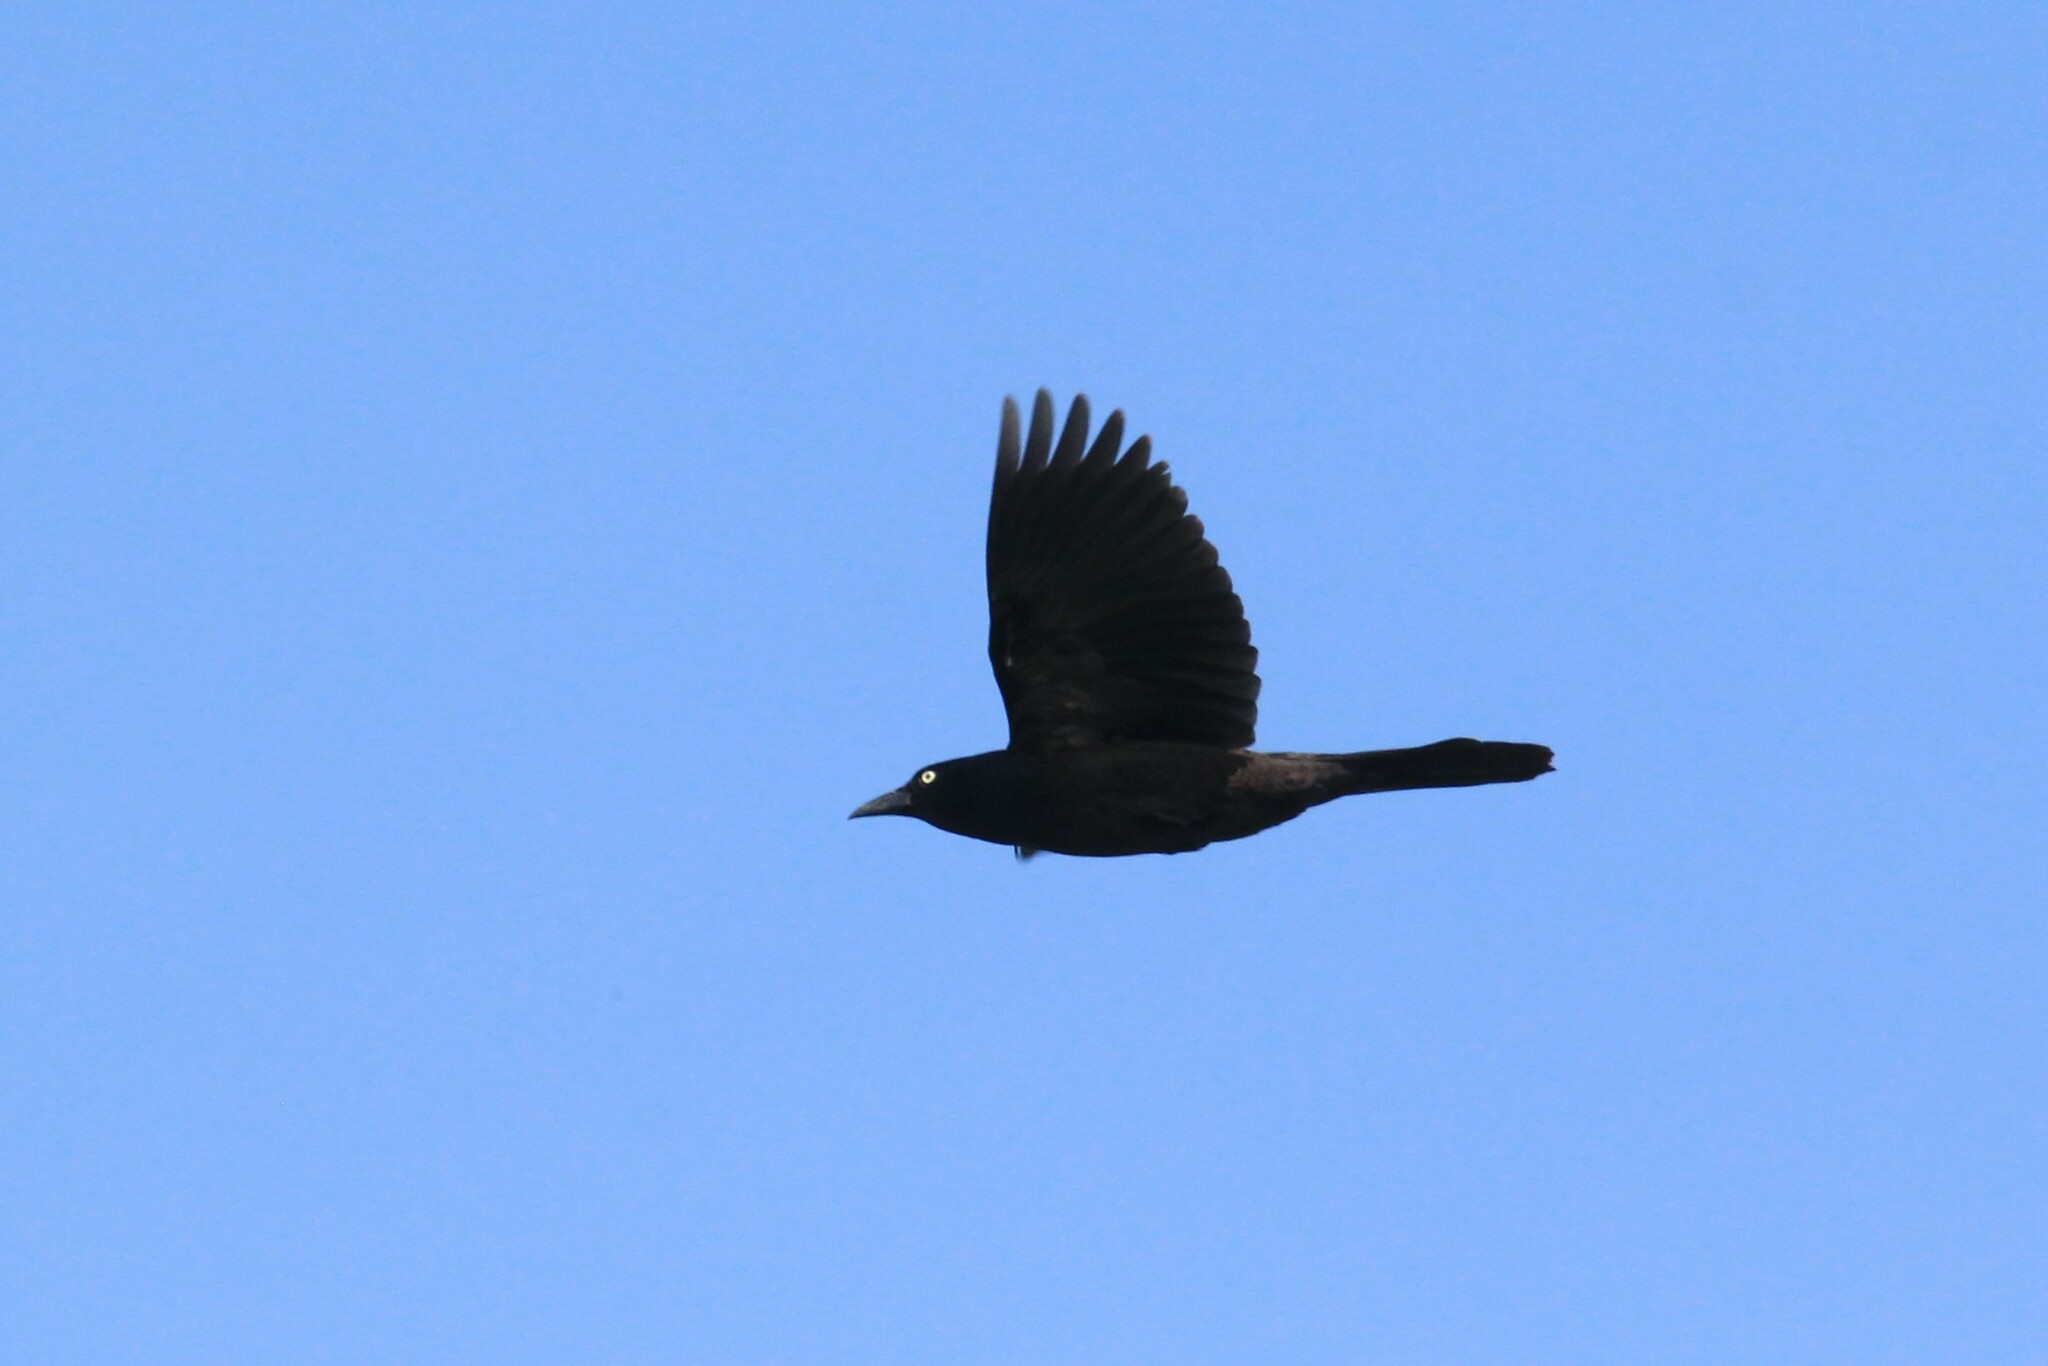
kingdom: Animalia
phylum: Chordata
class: Aves
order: Passeriformes
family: Icteridae
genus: Quiscalus
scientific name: Quiscalus quiscula
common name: Common grackle
